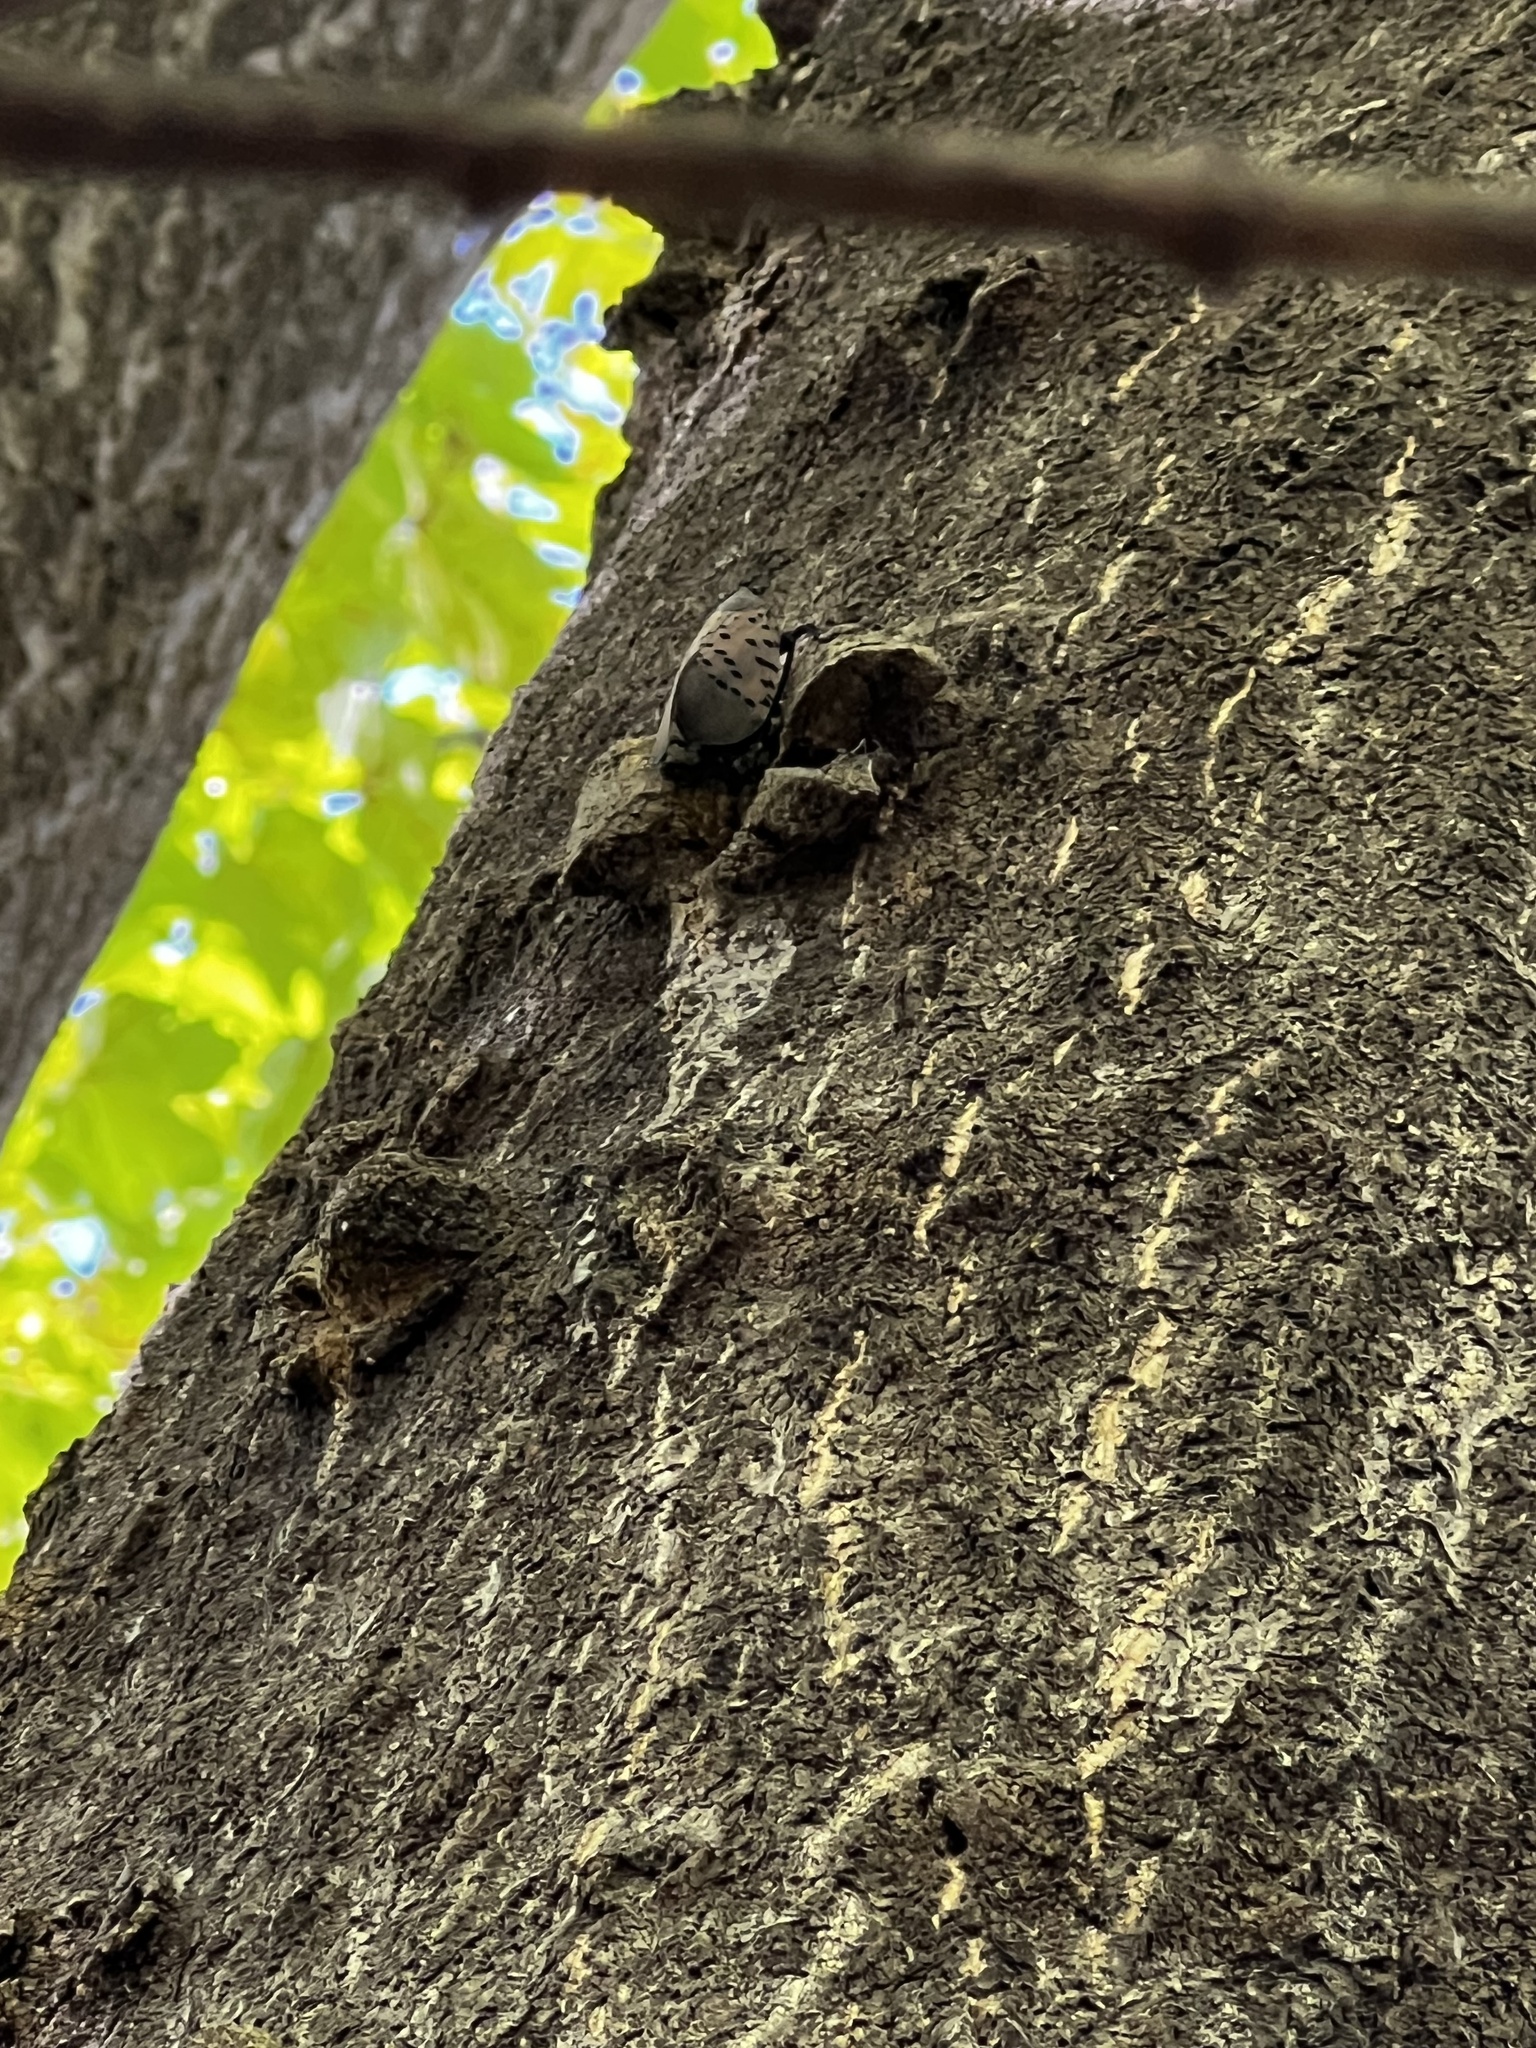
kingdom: Animalia
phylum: Arthropoda
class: Insecta
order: Hemiptera
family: Fulgoridae
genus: Lycorma
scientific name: Lycorma delicatula
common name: Spotted lanternfly
